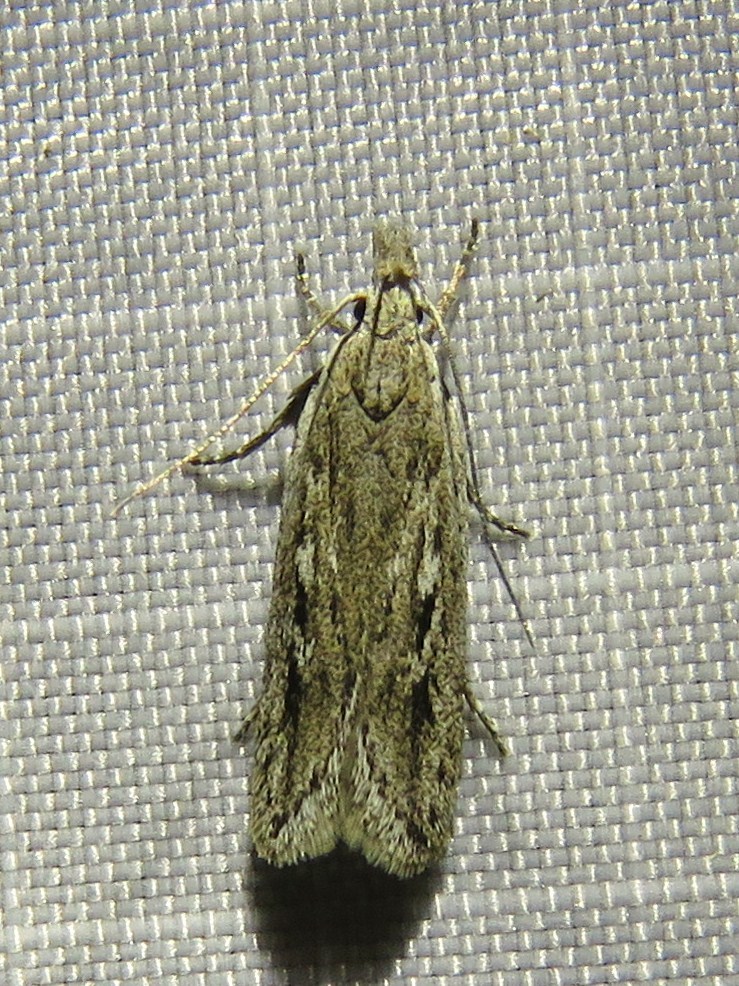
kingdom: Animalia
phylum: Arthropoda
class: Insecta
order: Lepidoptera
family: Gelechiidae
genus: Gelechia
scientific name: Gelechia sabinellus
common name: Juniper groundling
